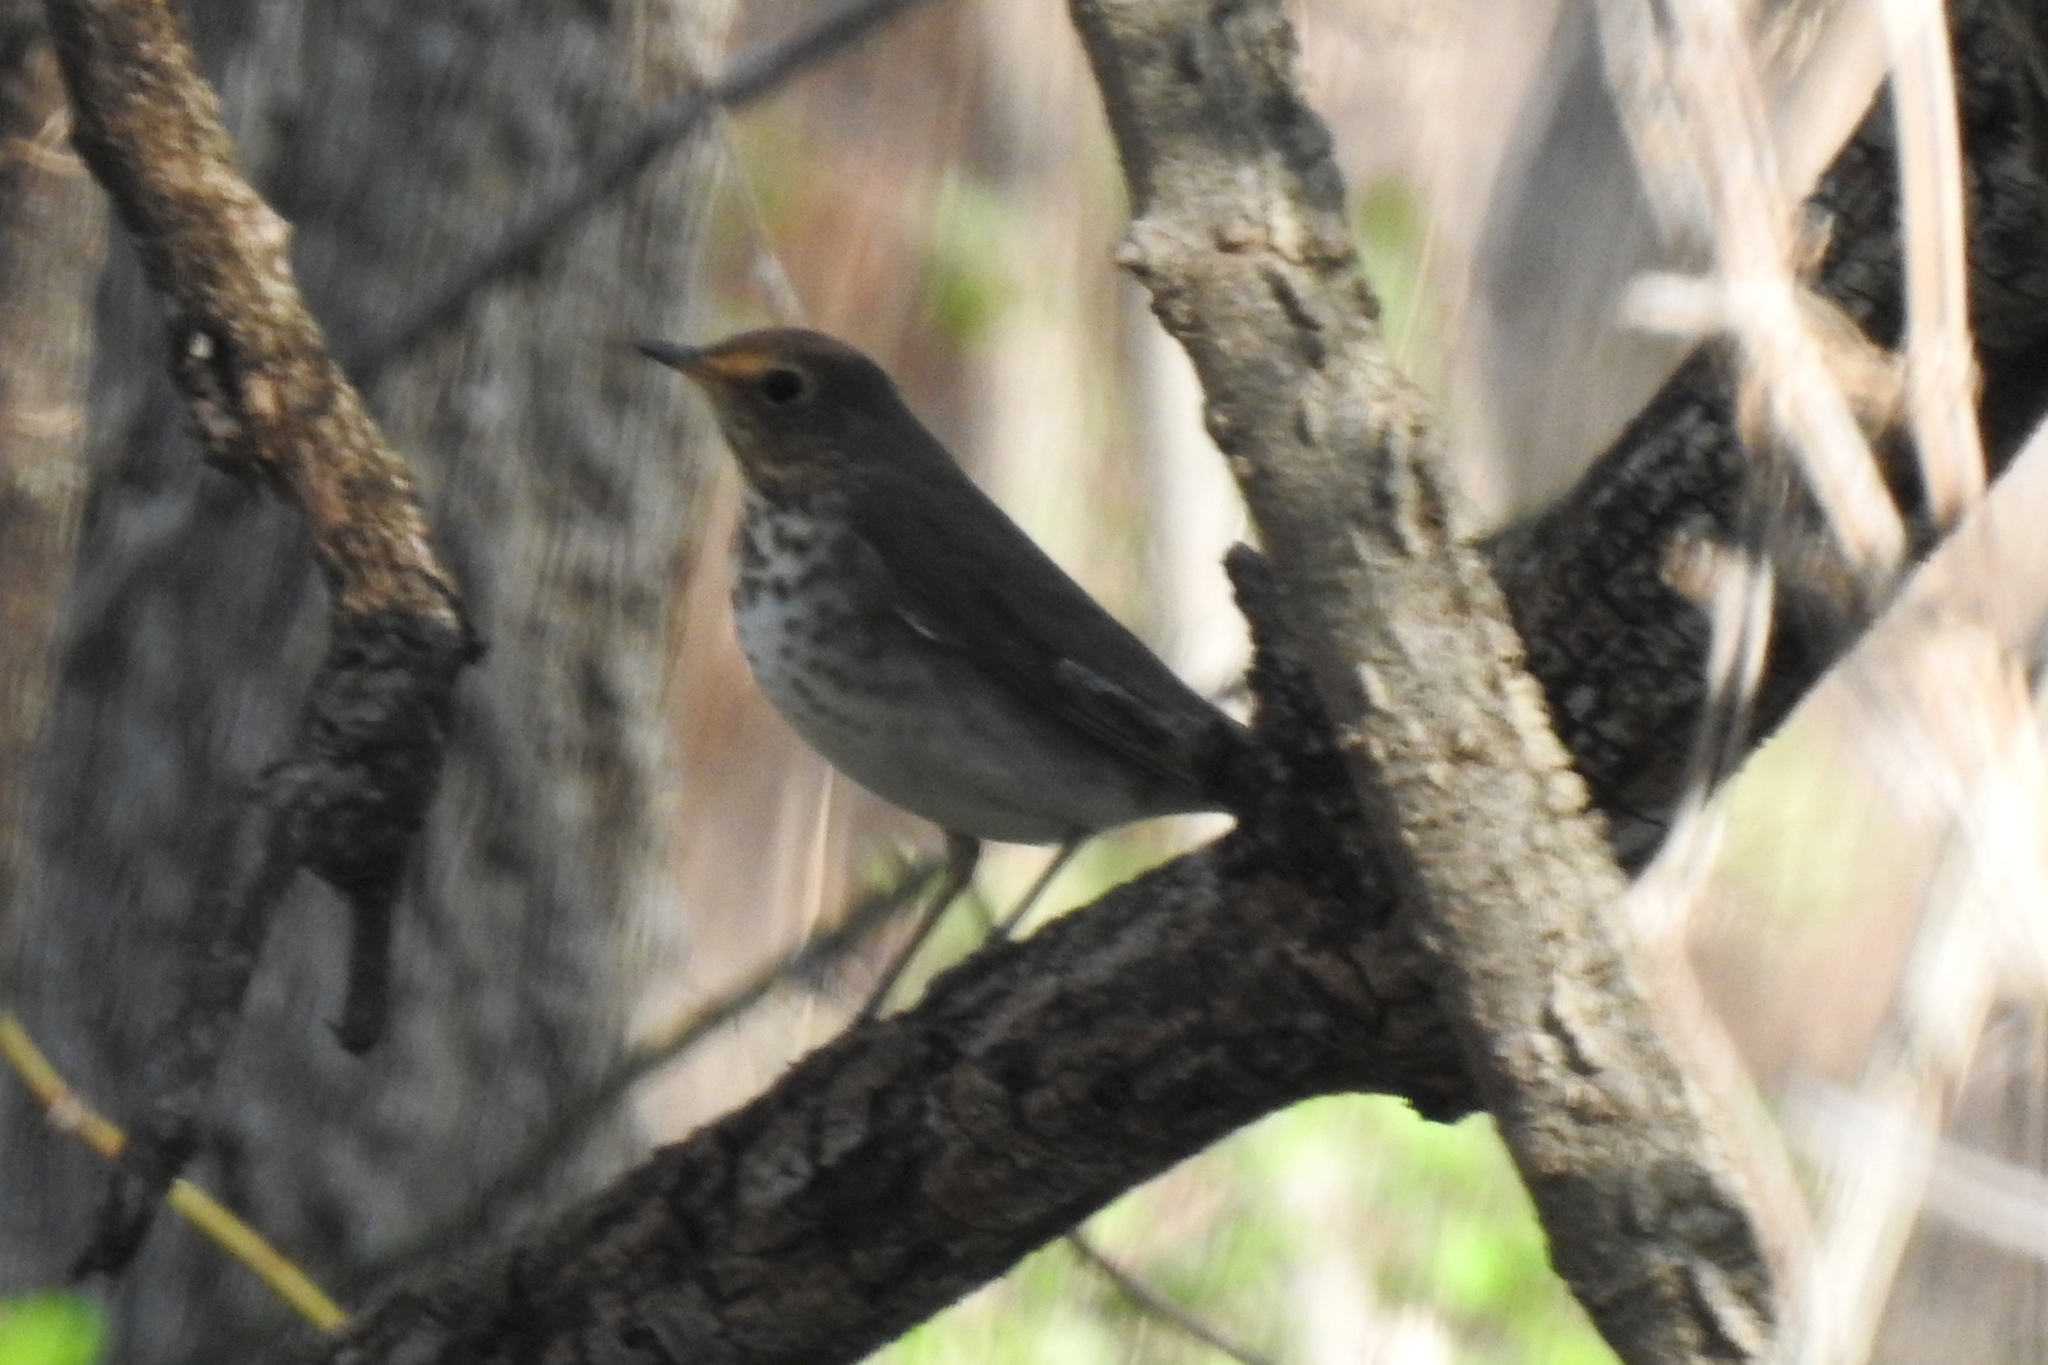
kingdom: Animalia
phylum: Chordata
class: Aves
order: Passeriformes
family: Turdidae
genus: Catharus
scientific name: Catharus ustulatus
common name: Swainson's thrush
